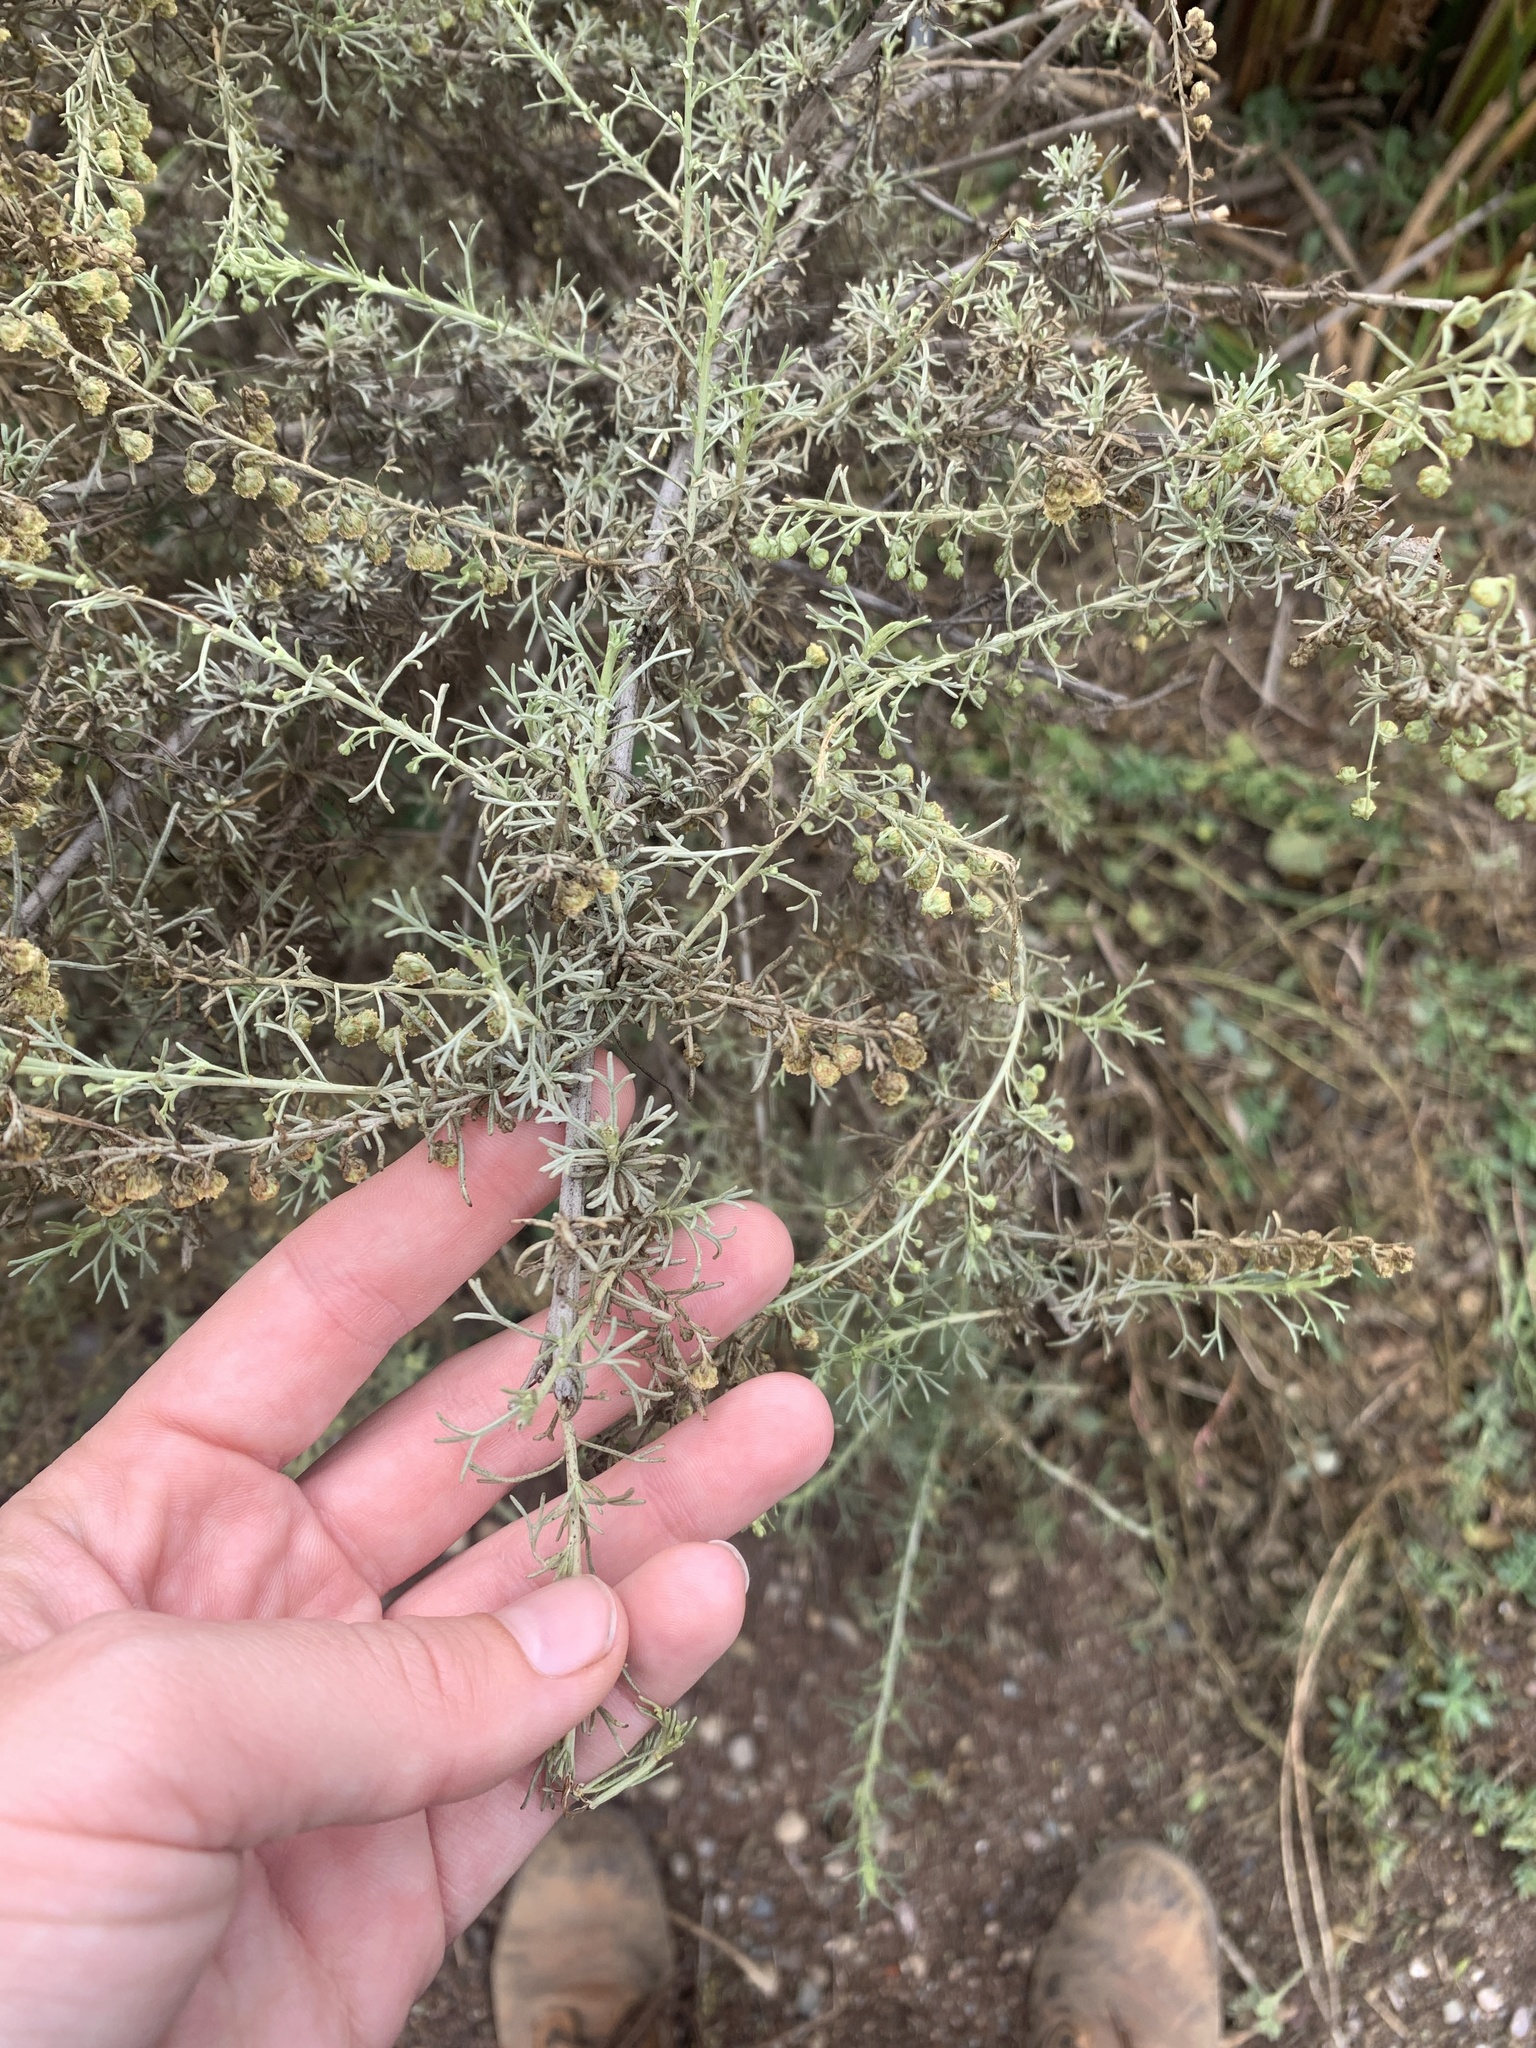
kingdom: Plantae
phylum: Tracheophyta
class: Magnoliopsida
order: Asterales
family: Asteraceae
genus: Artemisia
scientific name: Artemisia californica
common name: California sagebrush
